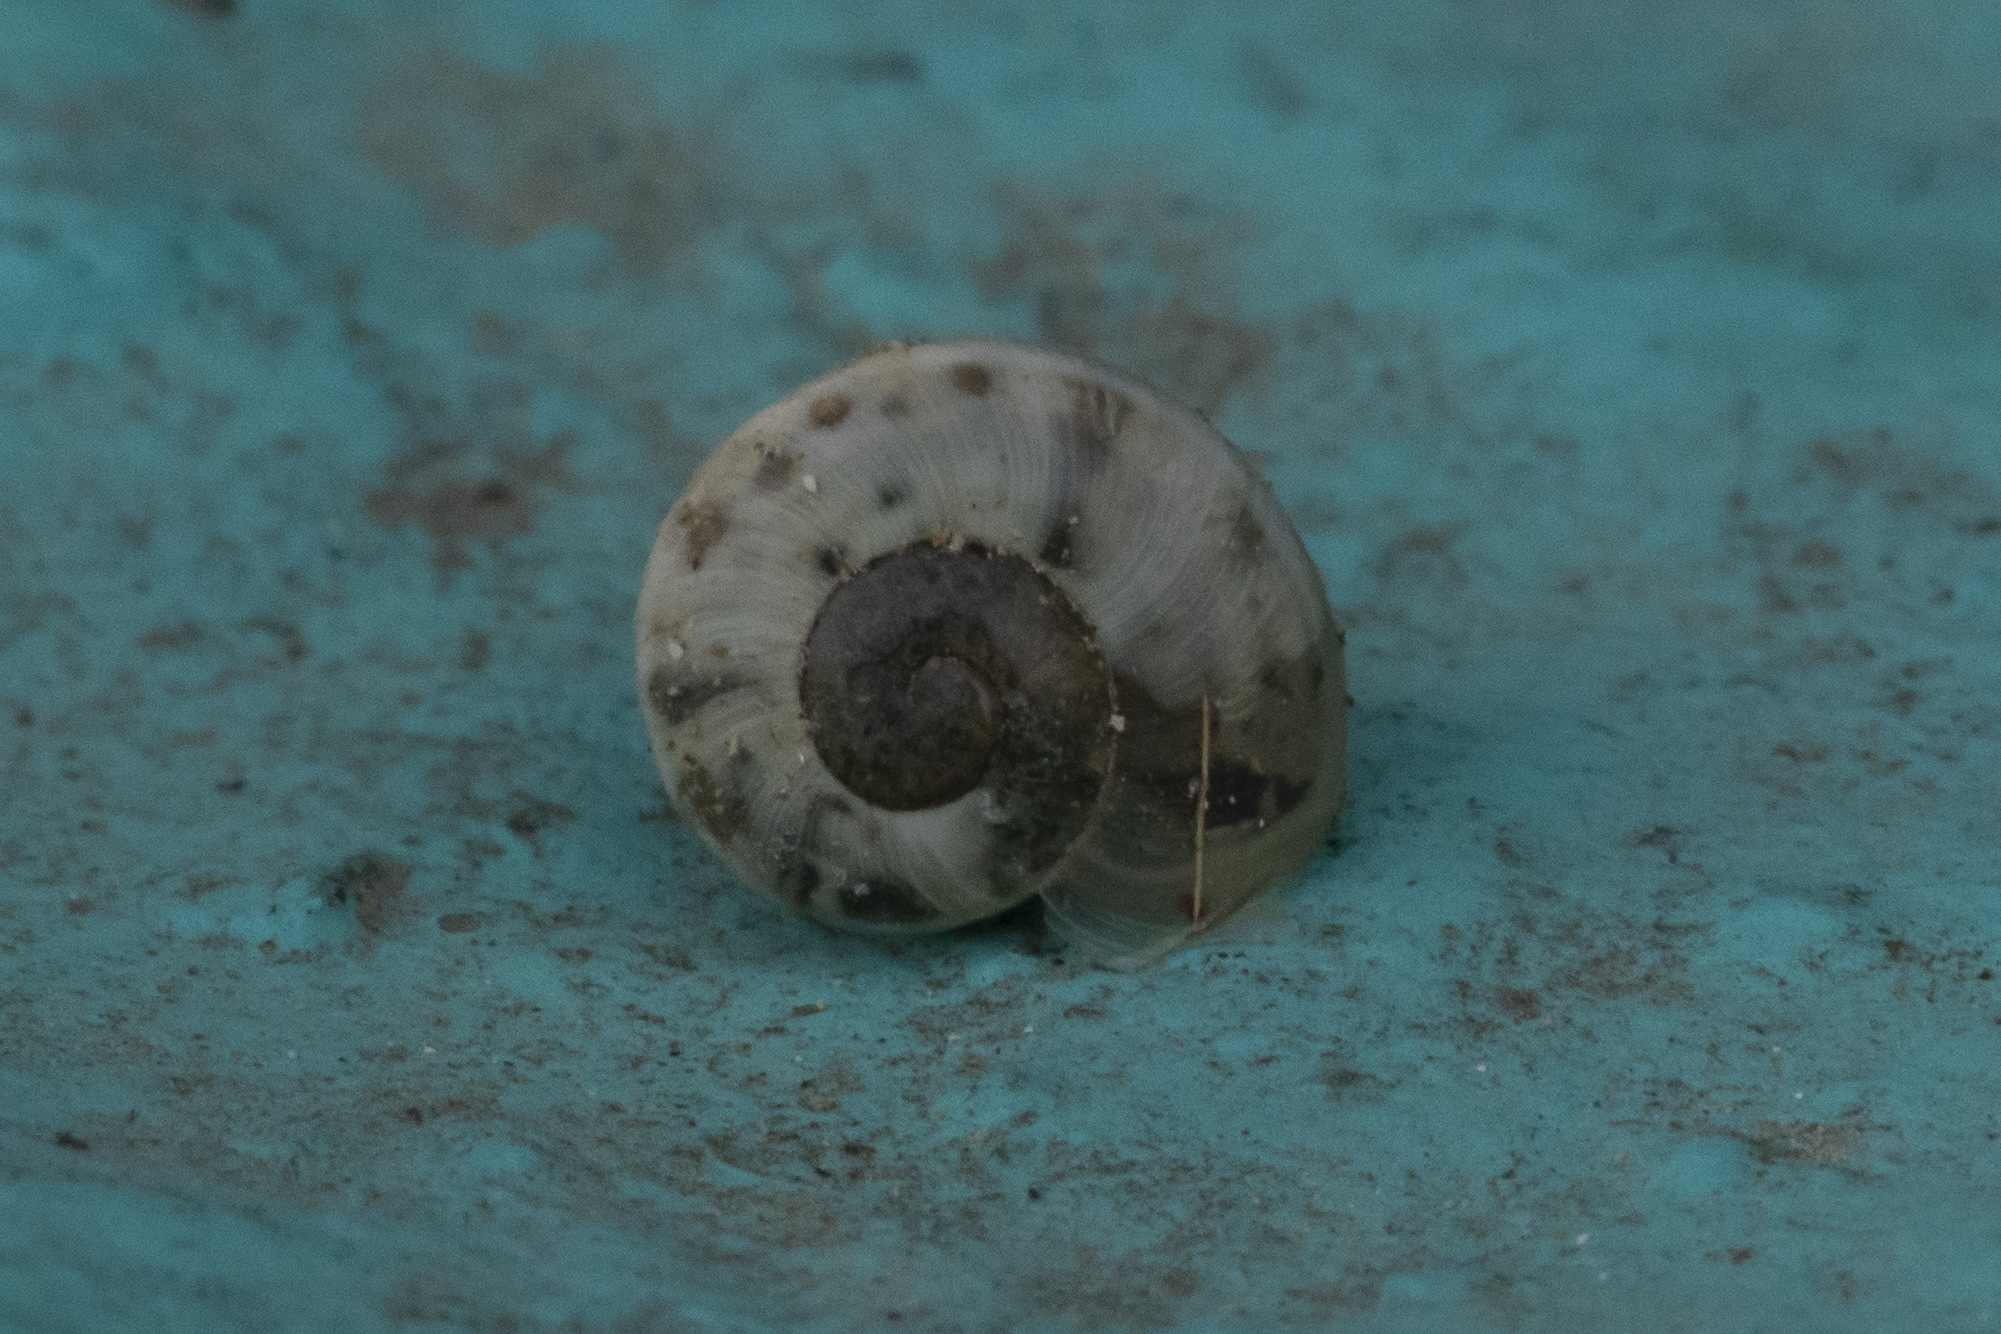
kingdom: Animalia
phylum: Mollusca
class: Gastropoda
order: Stylommatophora
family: Helicidae
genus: Theba
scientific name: Theba pisana
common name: White snail
